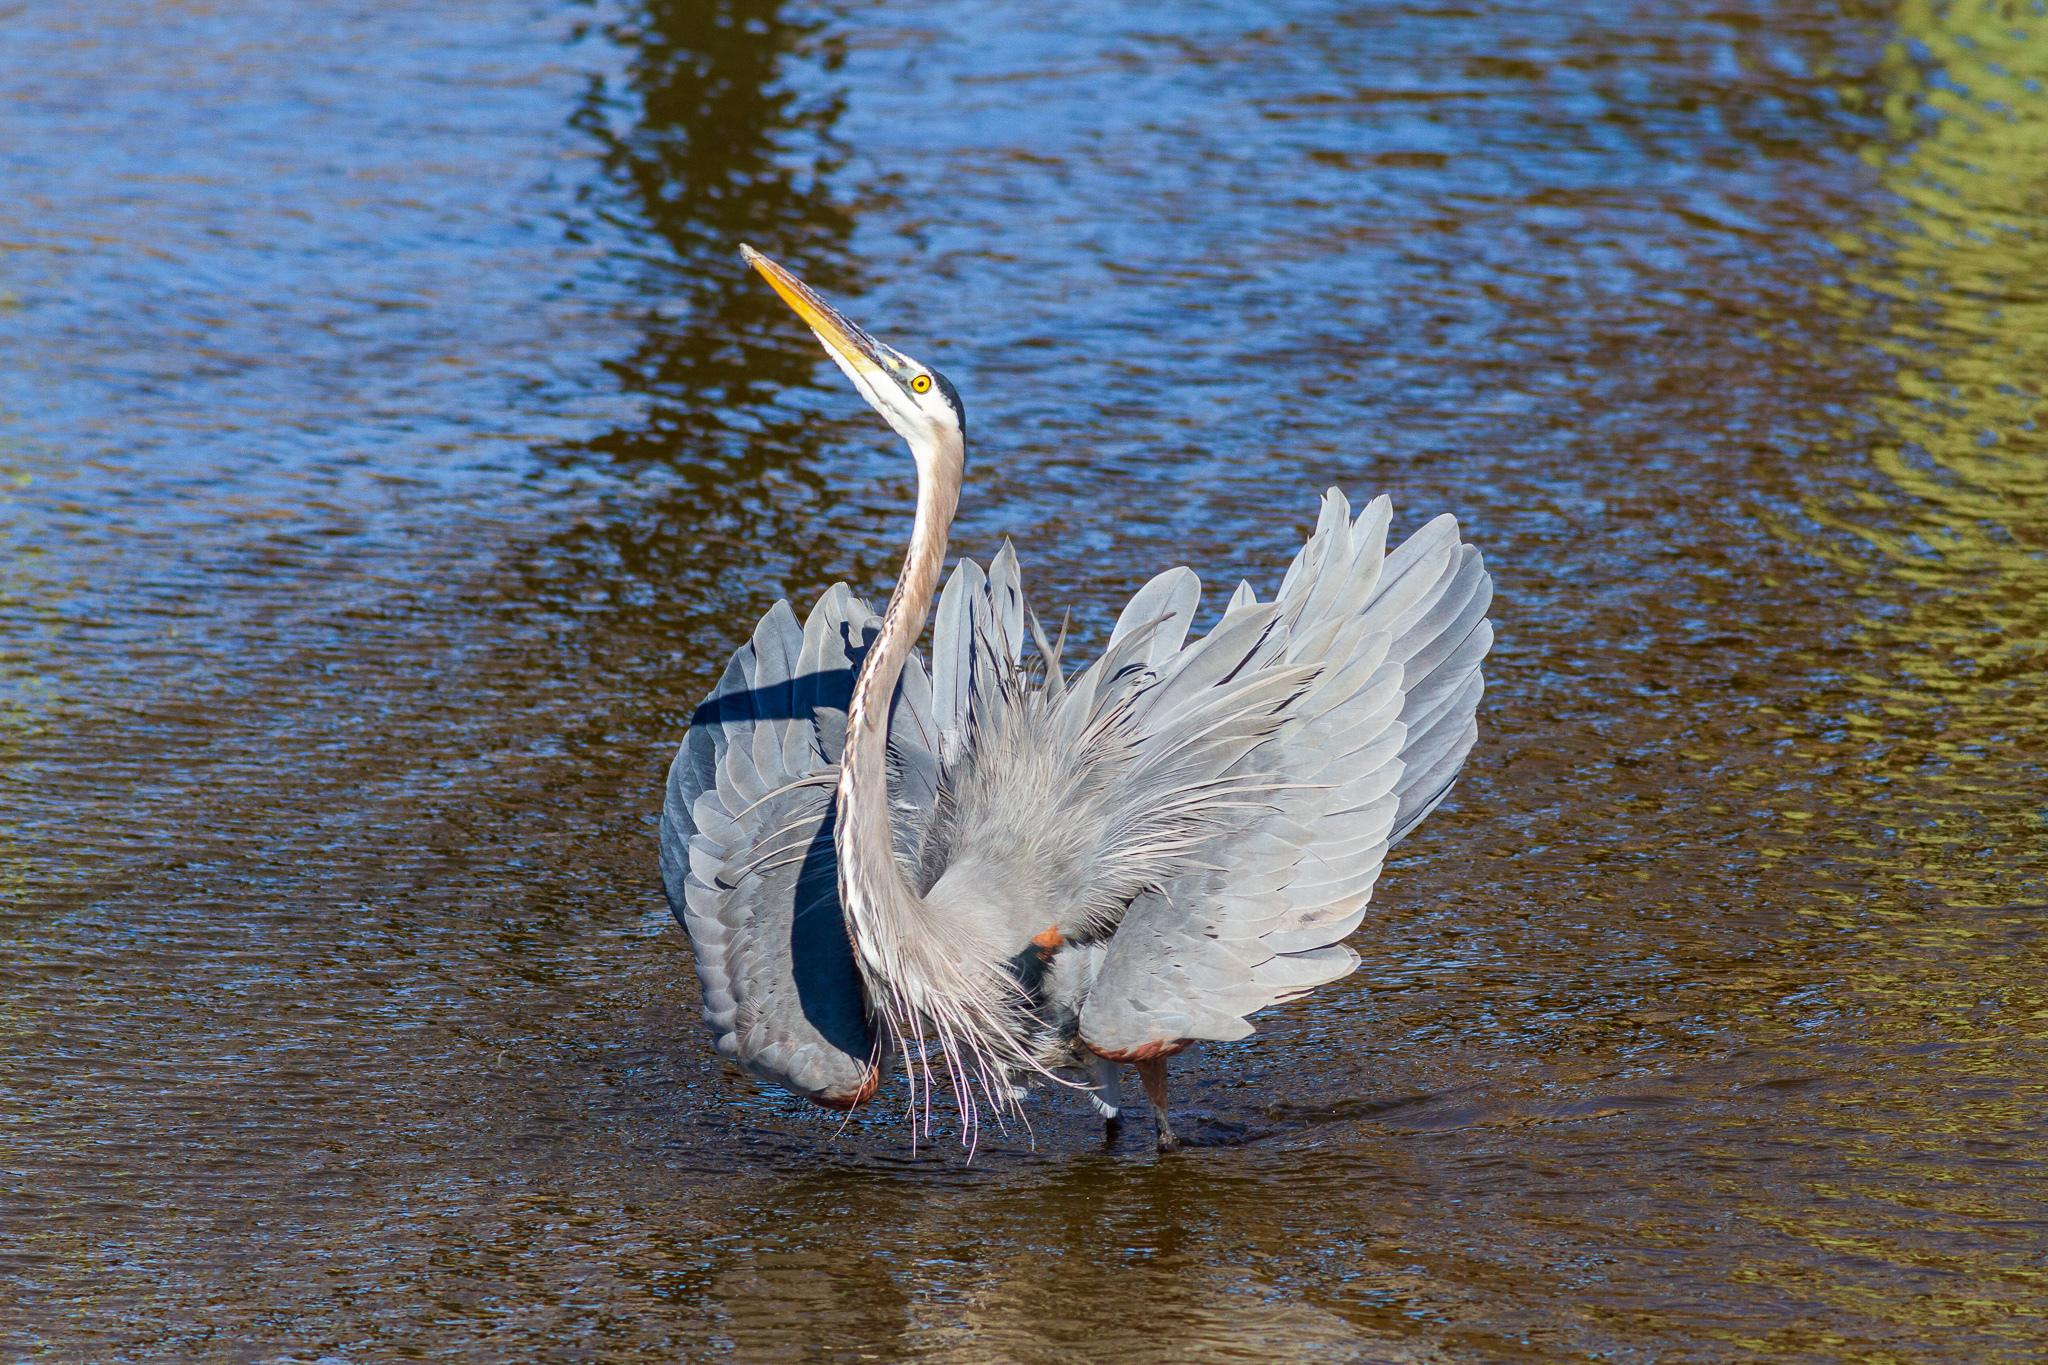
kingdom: Animalia
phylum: Chordata
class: Aves
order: Pelecaniformes
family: Ardeidae
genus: Ardea
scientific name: Ardea herodias
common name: Great blue heron
